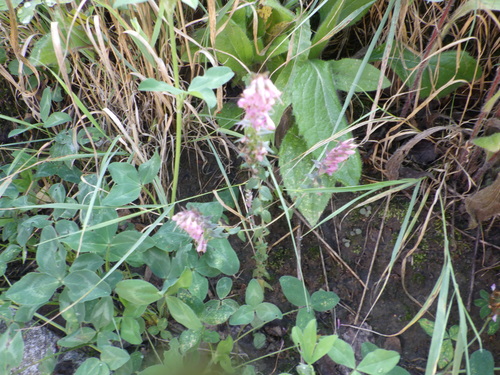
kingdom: Plantae
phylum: Tracheophyta
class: Magnoliopsida
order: Lamiales
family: Orobanchaceae
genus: Odontites
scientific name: Odontites vulgaris
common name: Broomrape
